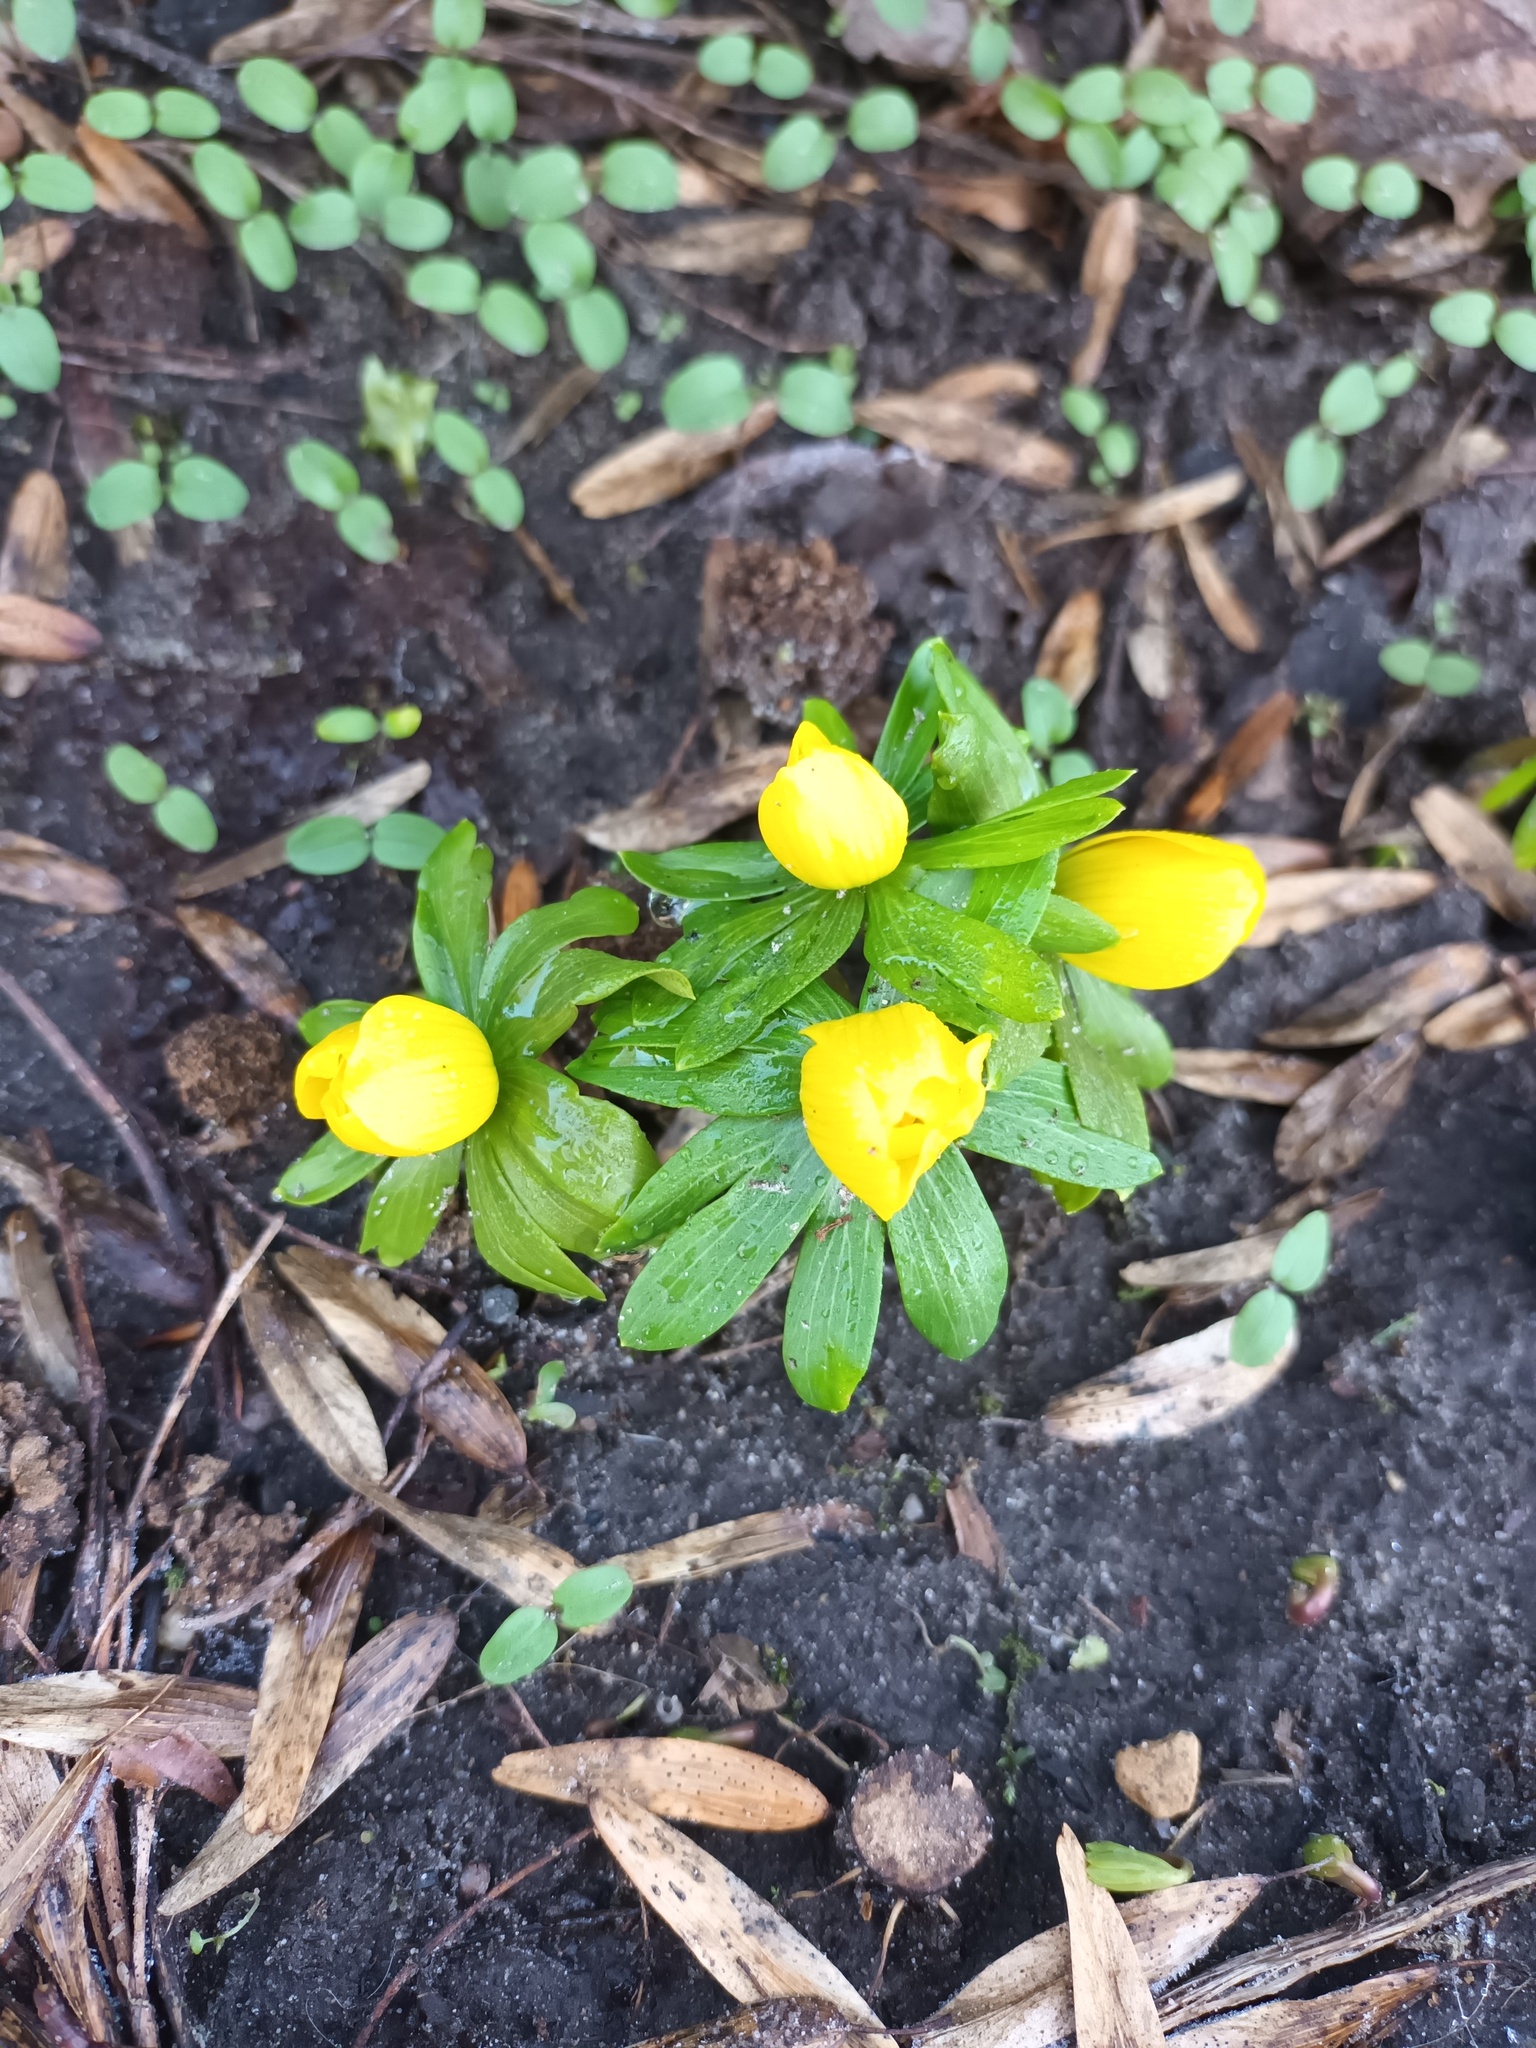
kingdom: Plantae
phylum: Tracheophyta
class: Magnoliopsida
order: Ranunculales
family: Ranunculaceae
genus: Eranthis
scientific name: Eranthis hyemalis
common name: Winter aconite
